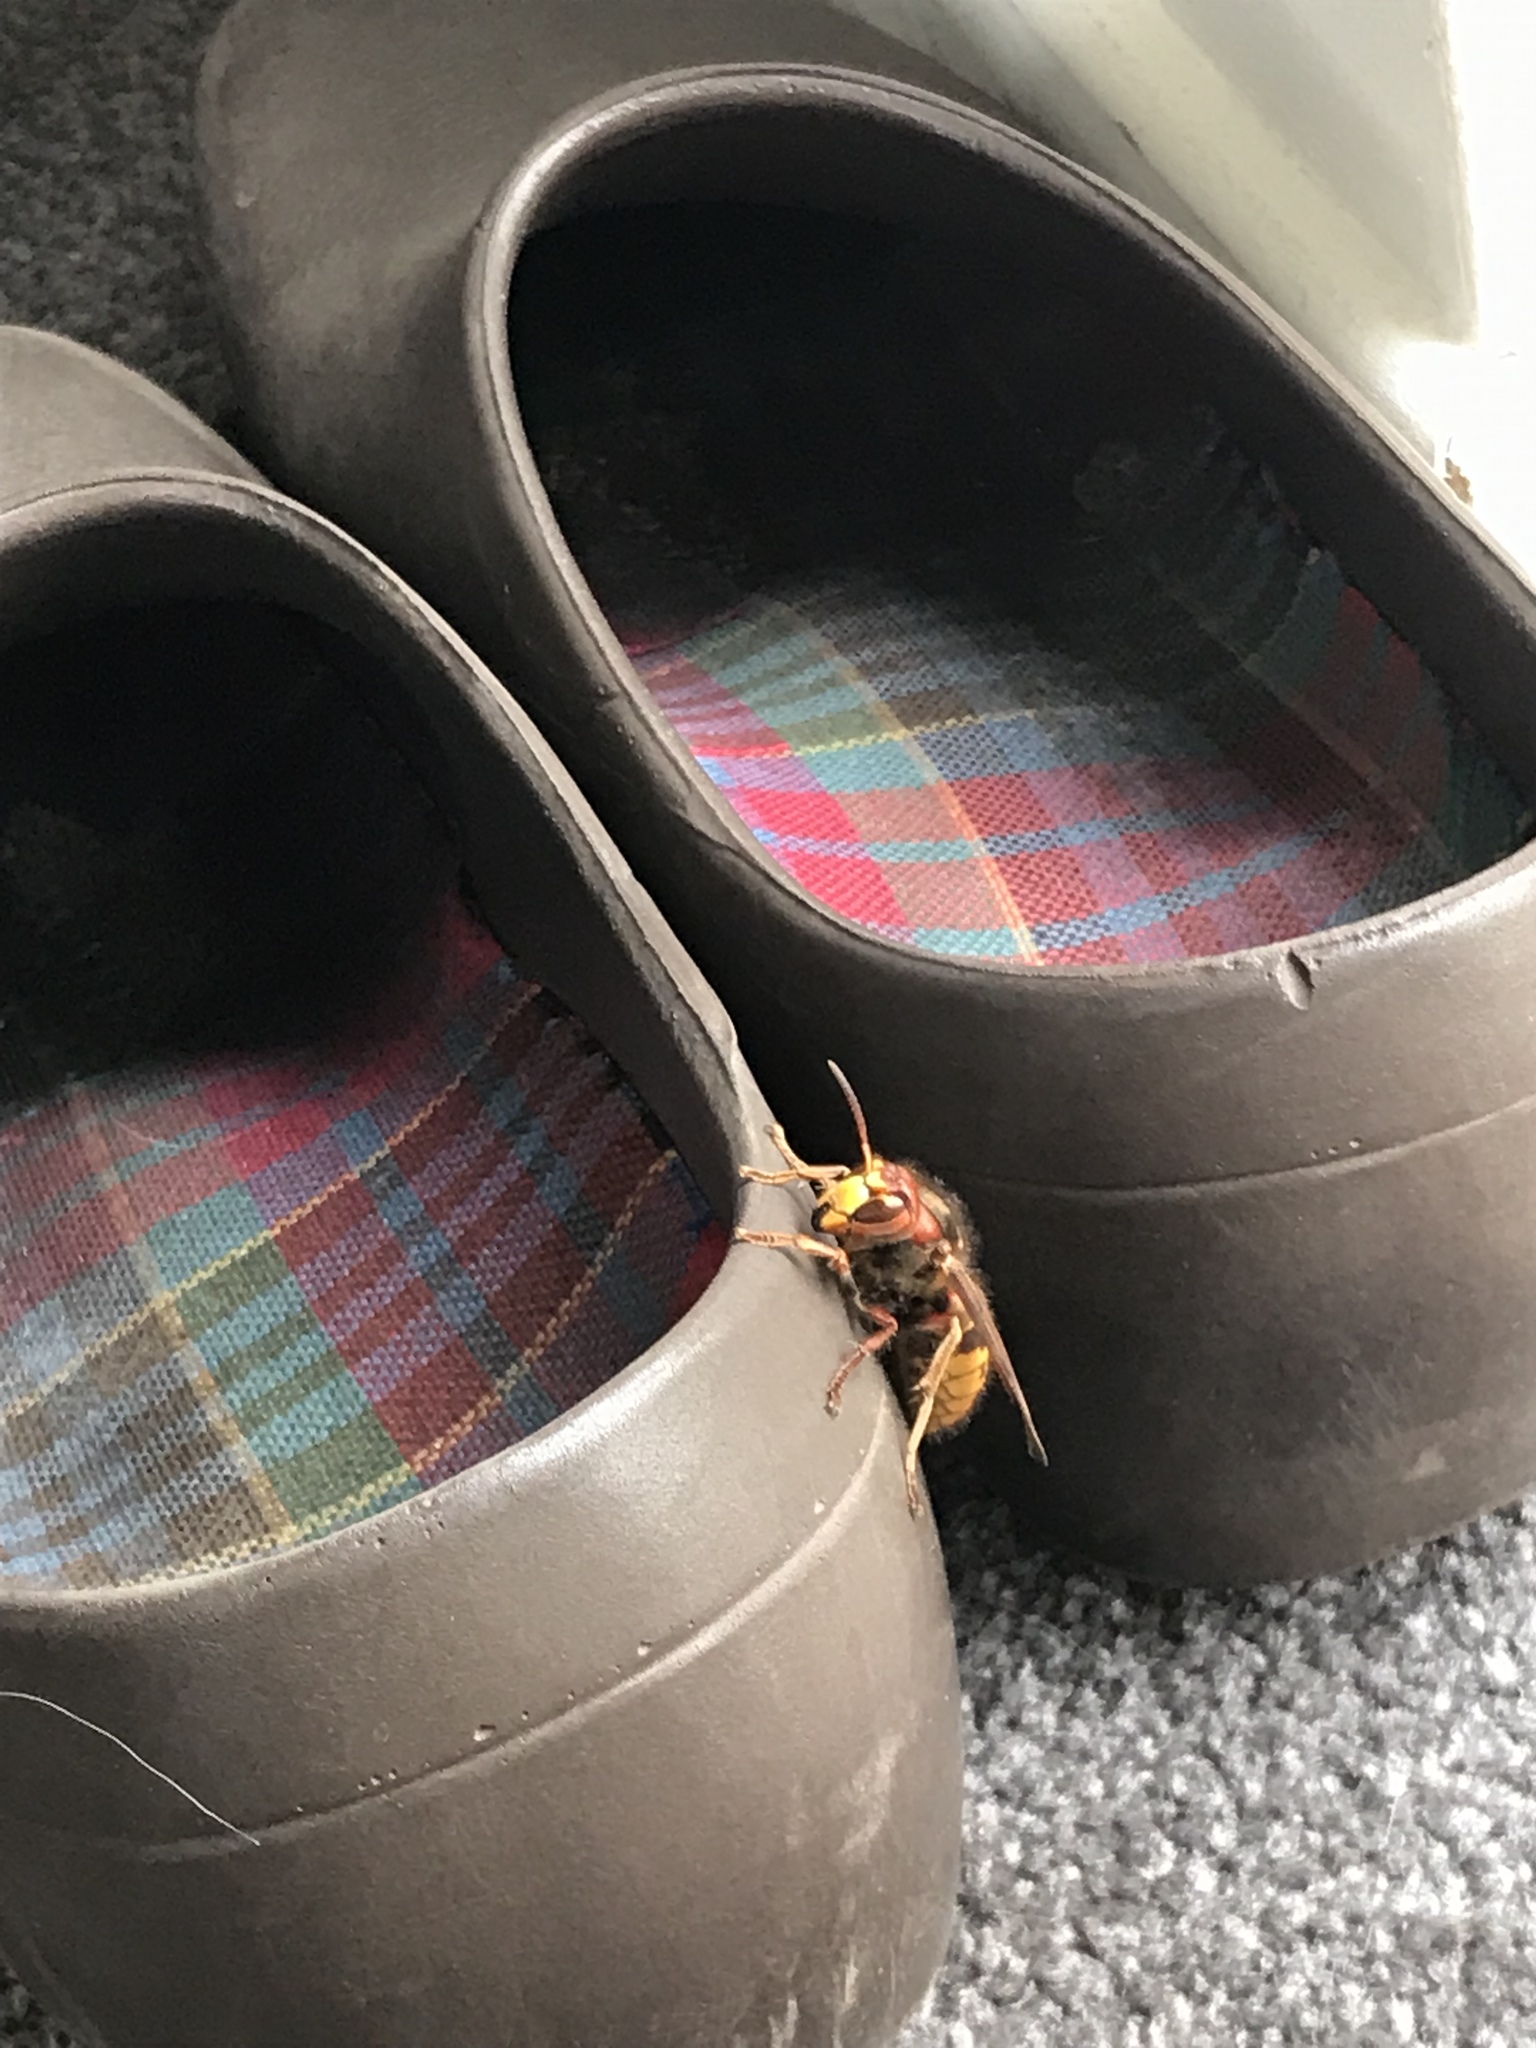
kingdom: Animalia
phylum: Arthropoda
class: Insecta
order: Hymenoptera
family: Vespidae
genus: Vespa
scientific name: Vespa crabro
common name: Hornet
